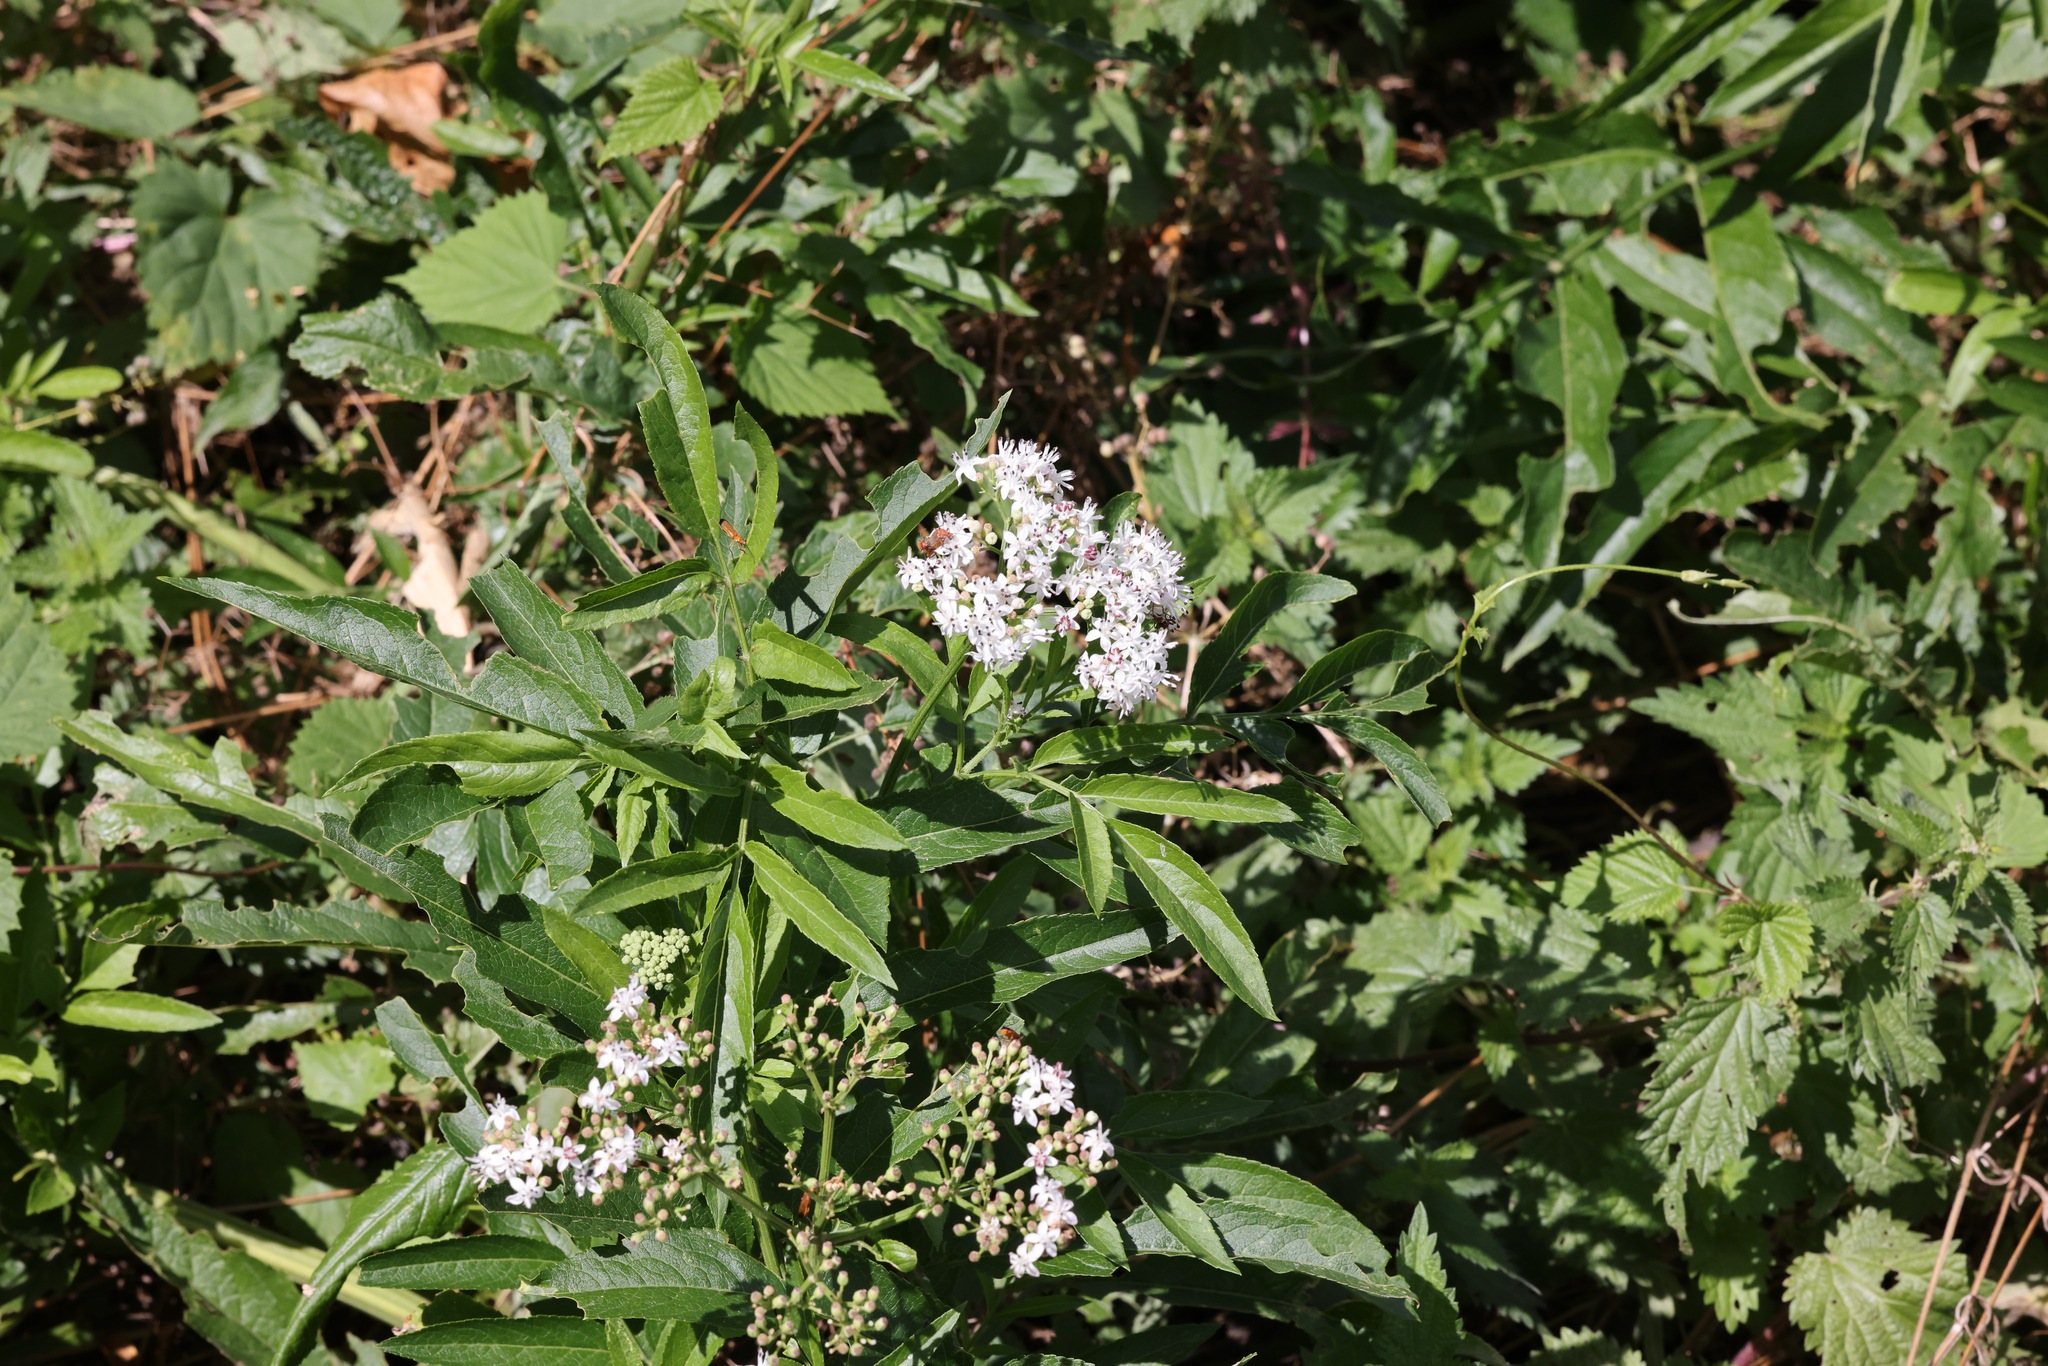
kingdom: Plantae
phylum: Tracheophyta
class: Magnoliopsida
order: Dipsacales
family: Viburnaceae
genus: Sambucus
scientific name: Sambucus ebulus
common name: Dwarf elder
